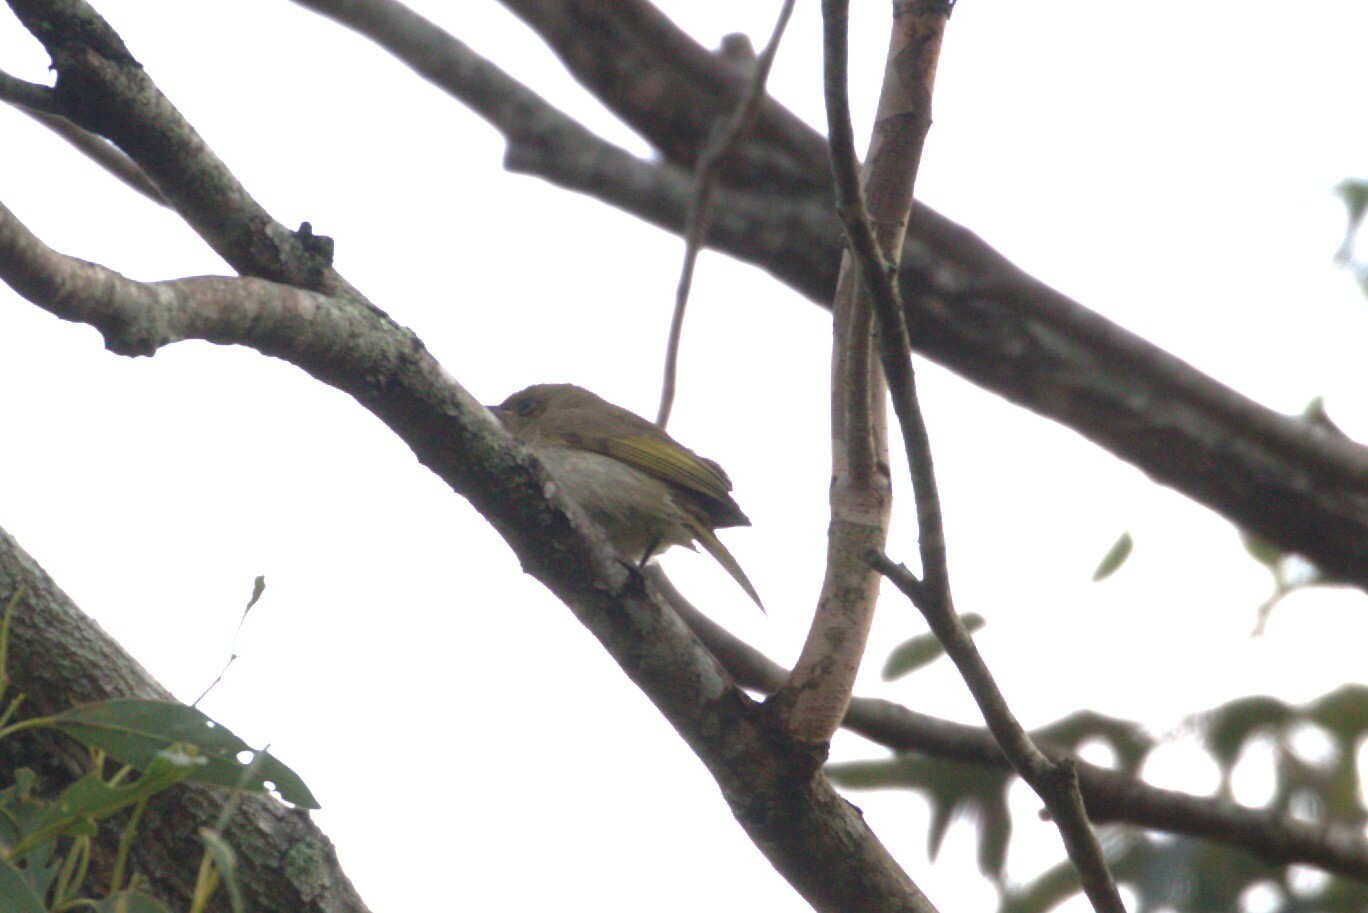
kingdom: Animalia
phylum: Chordata
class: Aves
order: Passeriformes
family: Meliphagidae
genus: Lichmera
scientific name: Lichmera indistincta
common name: Brown honeyeater
